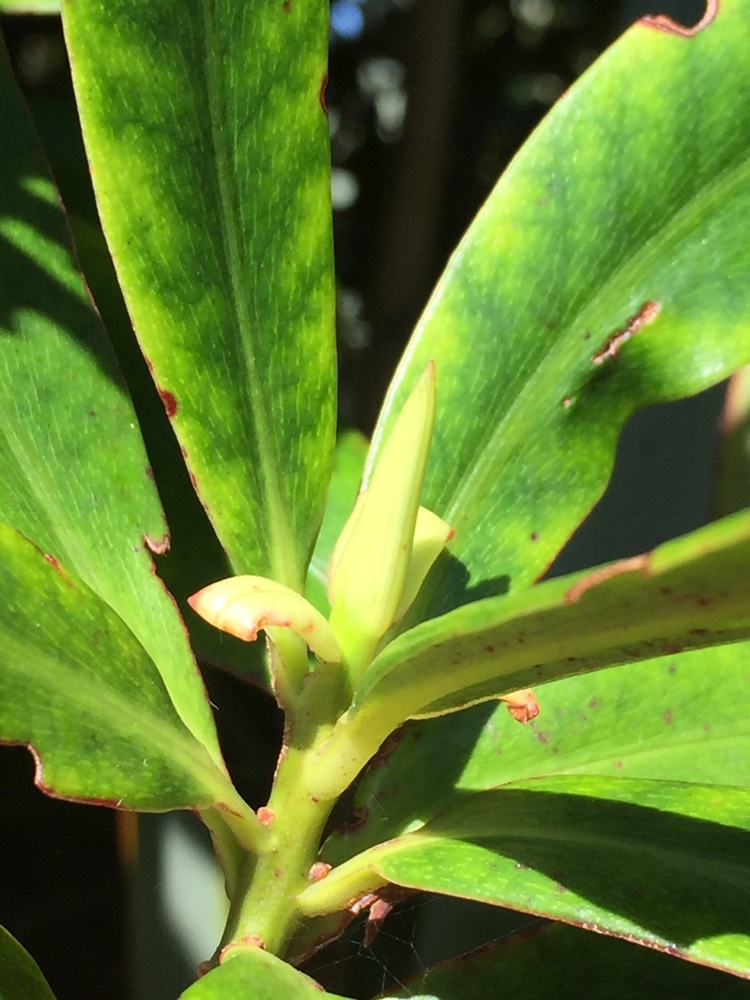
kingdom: Plantae
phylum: Tracheophyta
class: Magnoliopsida
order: Ericales
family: Primulaceae
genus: Myrsine
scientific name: Myrsine salicina
